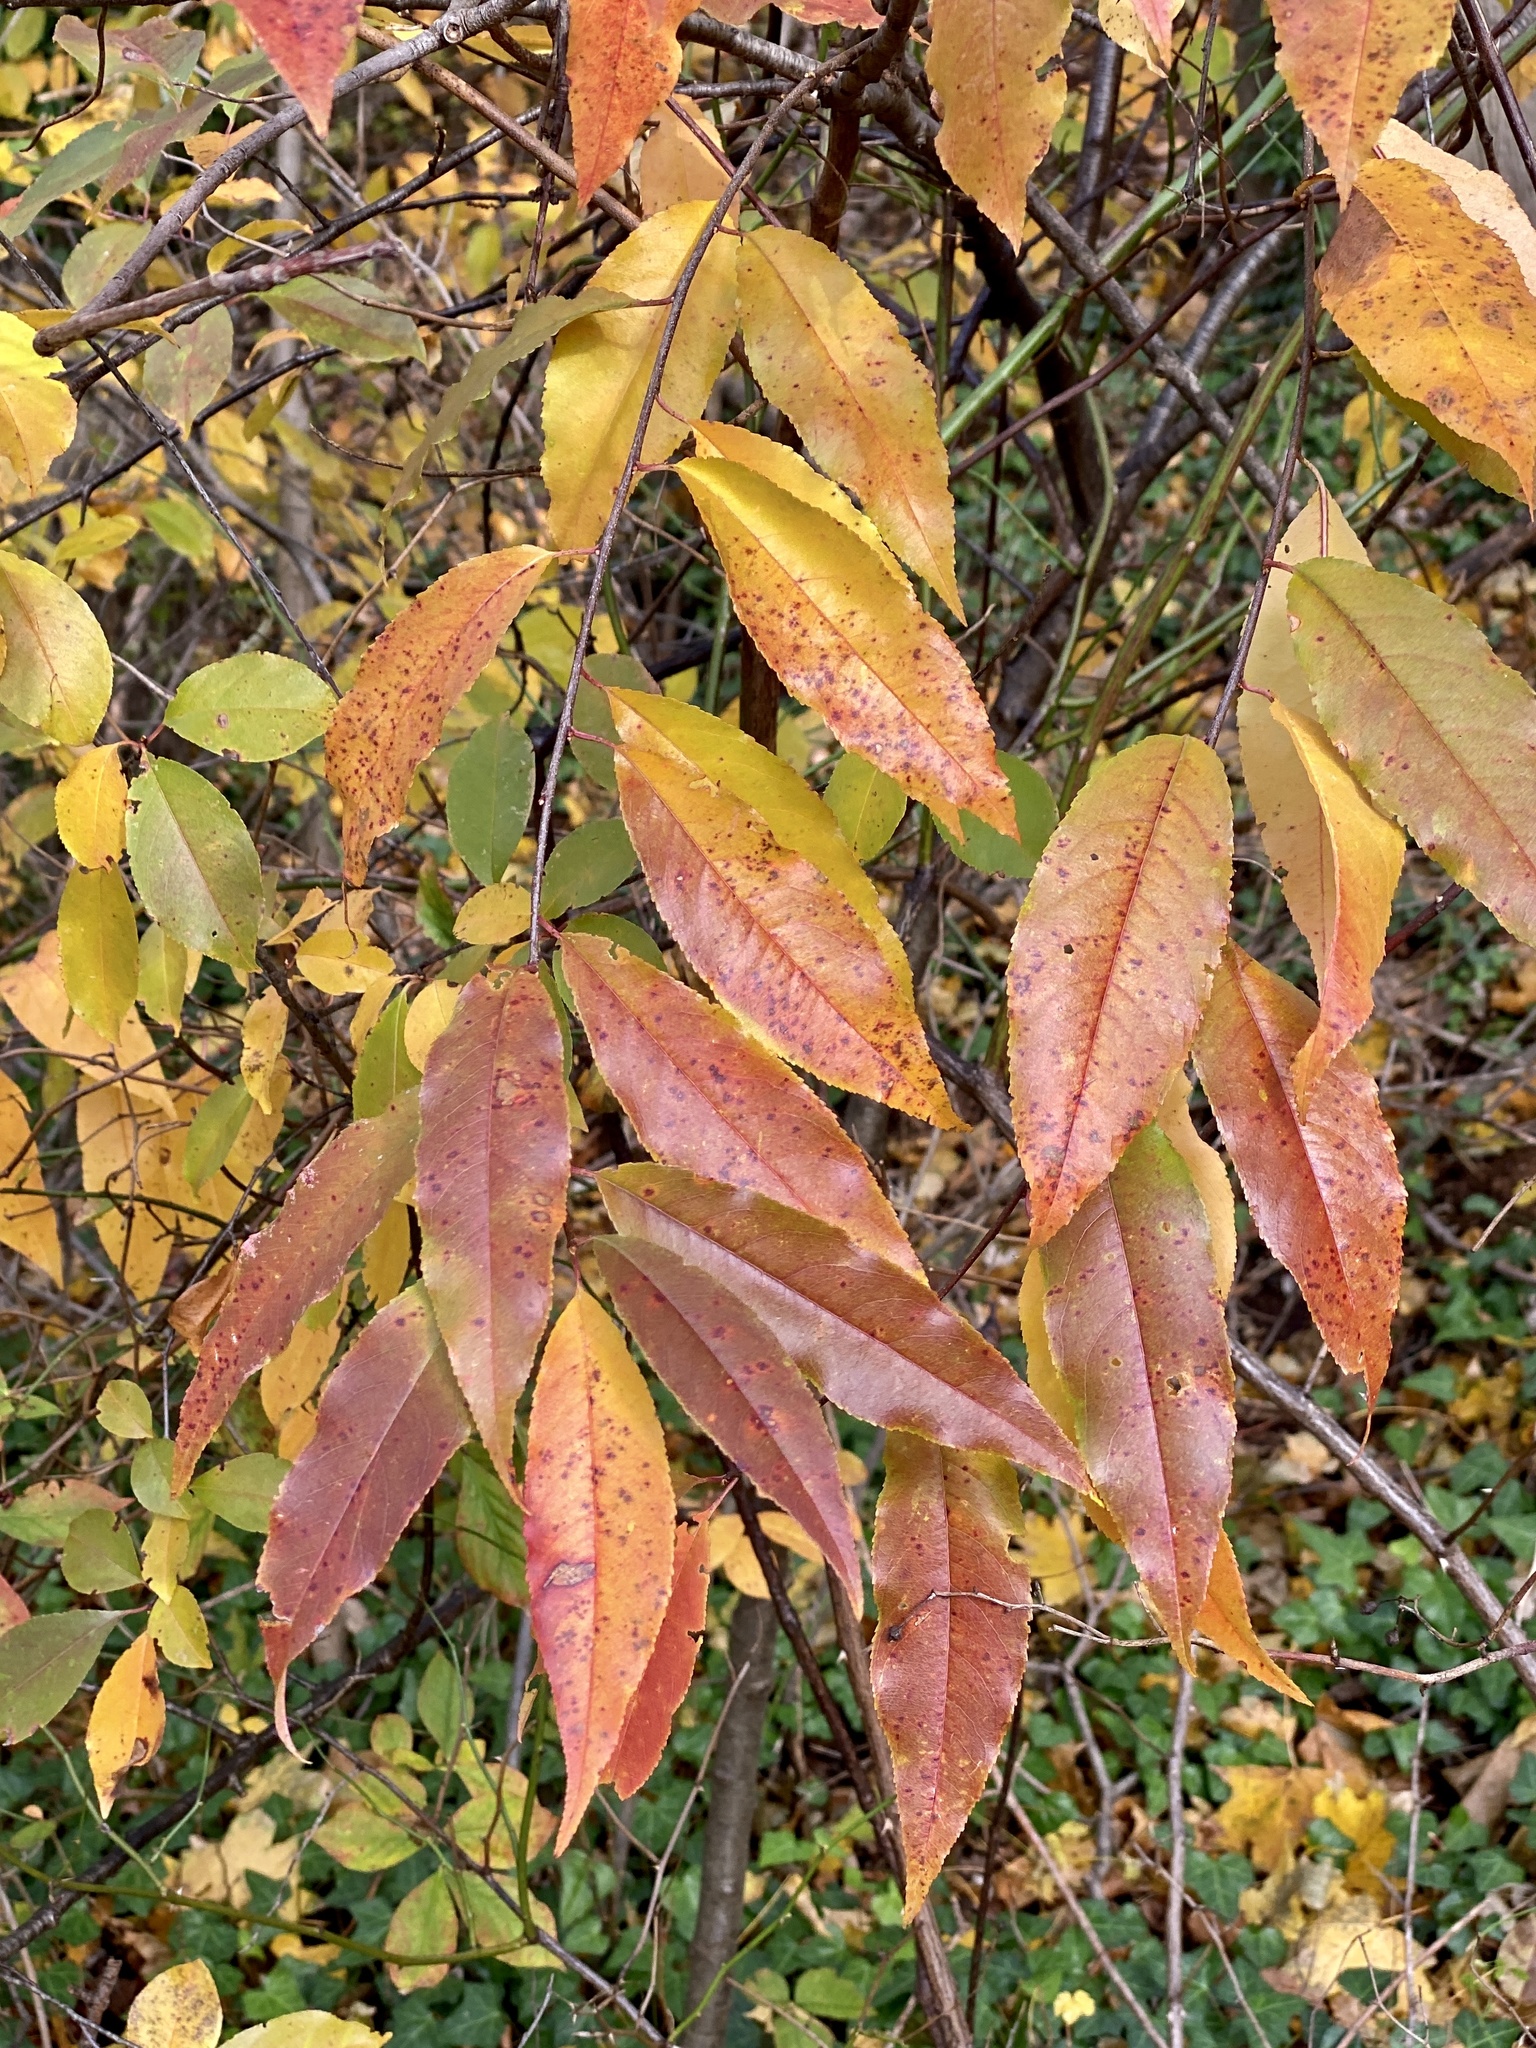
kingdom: Plantae
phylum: Tracheophyta
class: Magnoliopsida
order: Rosales
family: Rosaceae
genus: Prunus
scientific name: Prunus serotina
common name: Black cherry
